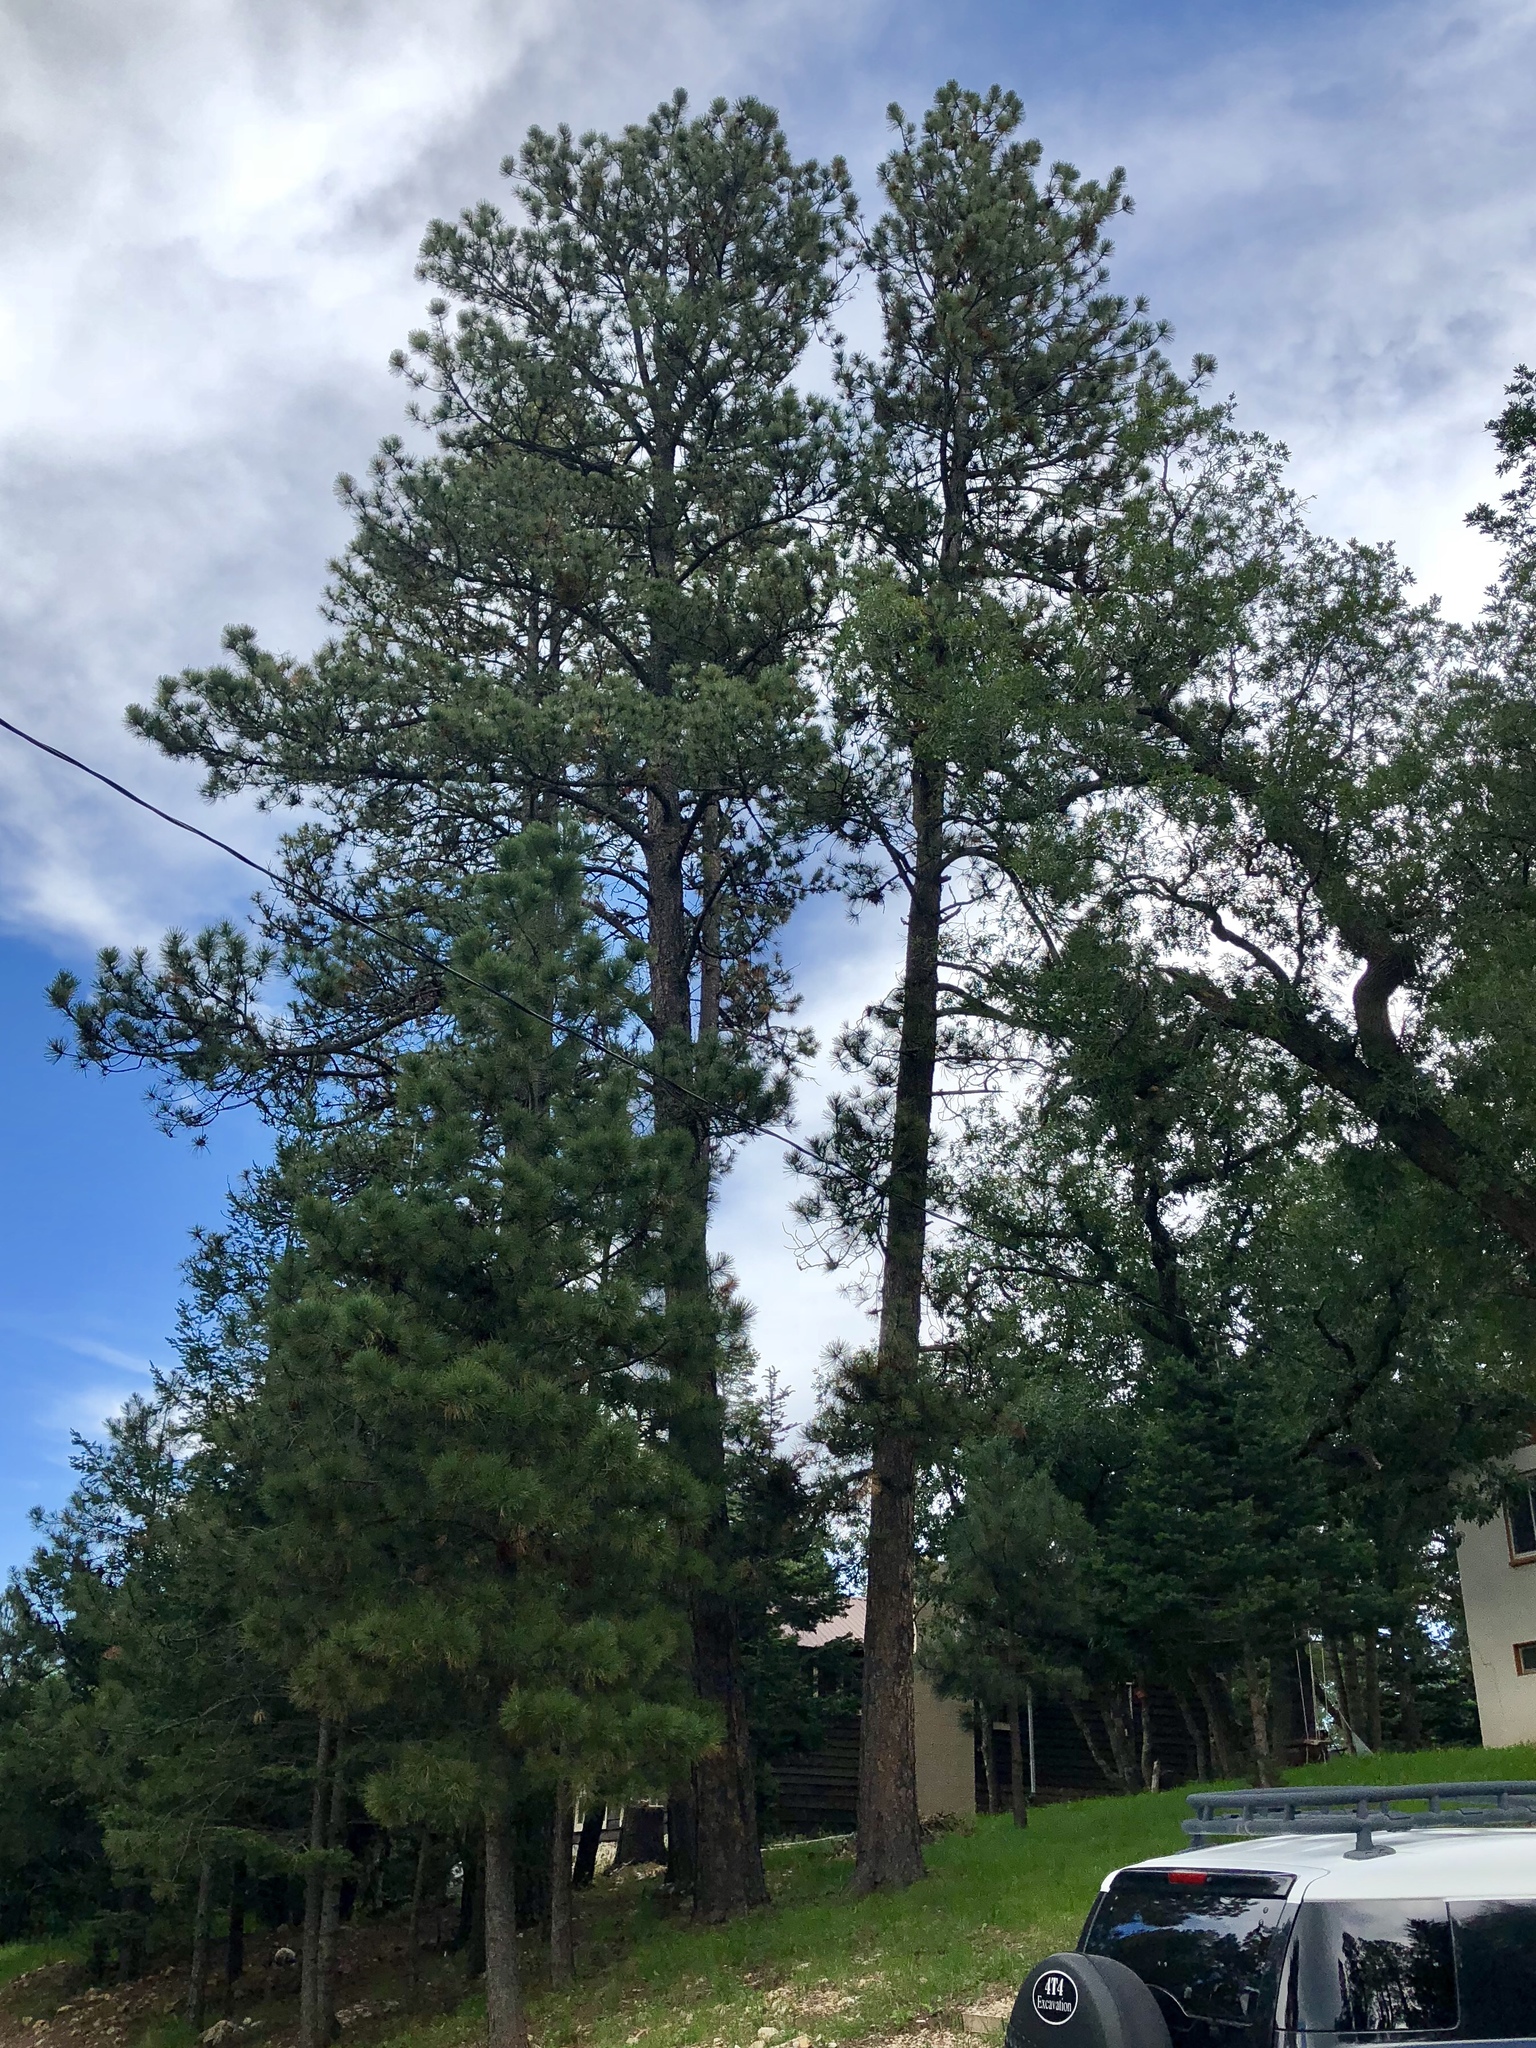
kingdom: Plantae
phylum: Tracheophyta
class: Pinopsida
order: Pinales
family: Pinaceae
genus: Pinus
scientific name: Pinus ponderosa
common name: Western yellow-pine
